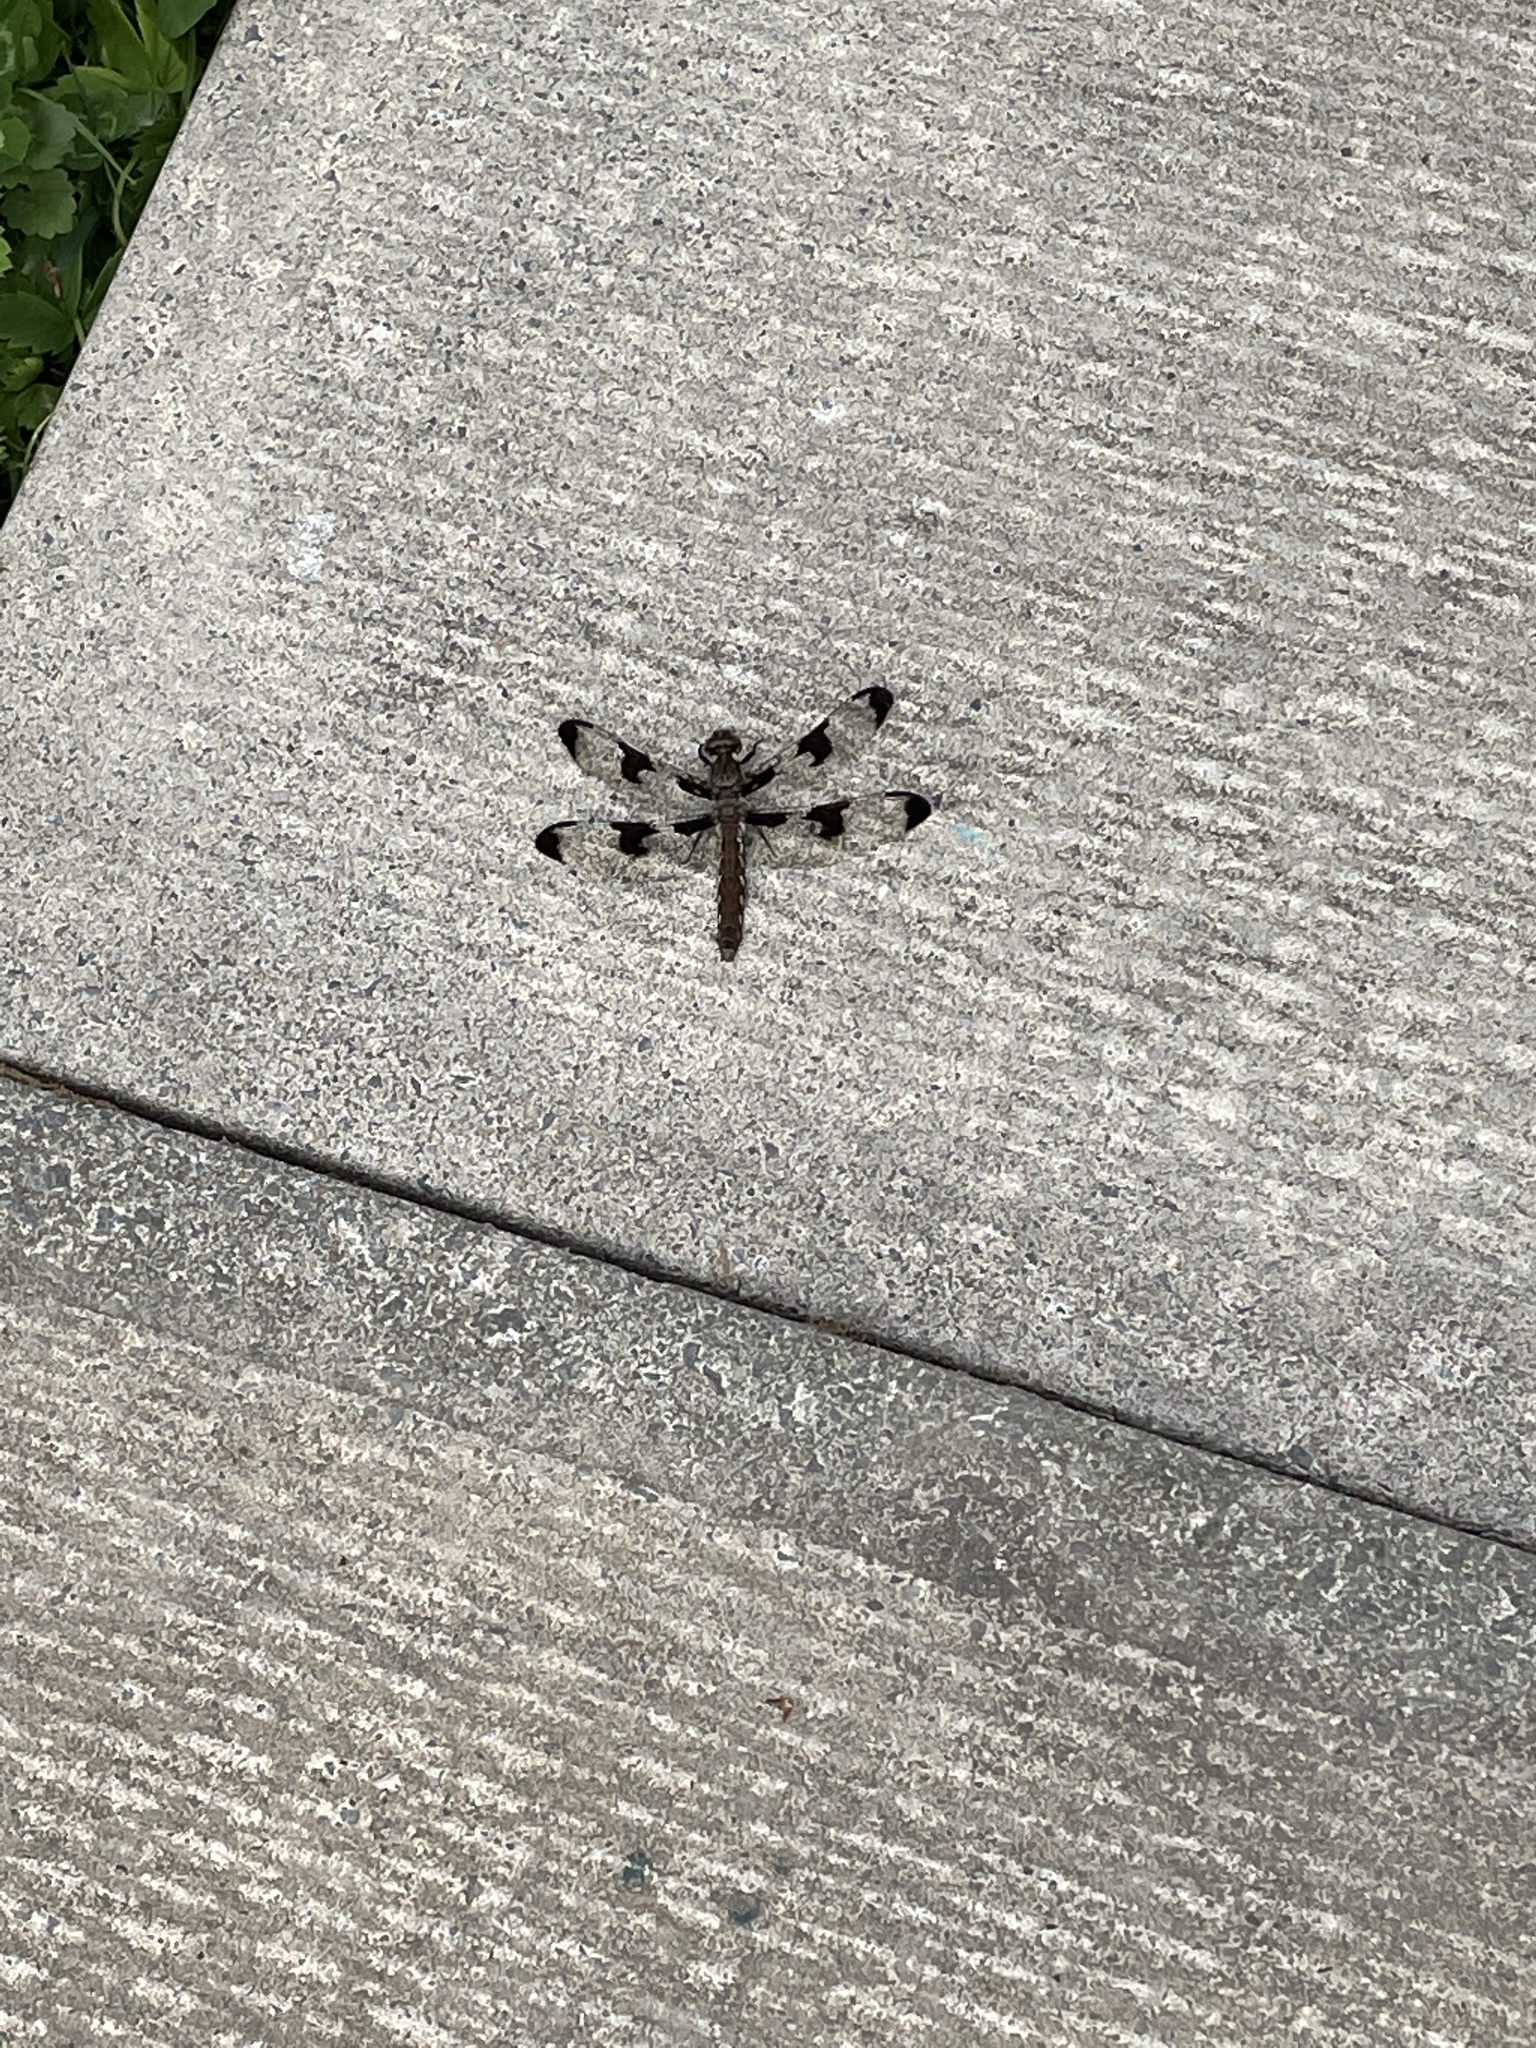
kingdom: Animalia
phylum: Arthropoda
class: Insecta
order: Odonata
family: Libellulidae
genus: Plathemis
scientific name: Plathemis lydia
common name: Common whitetail
